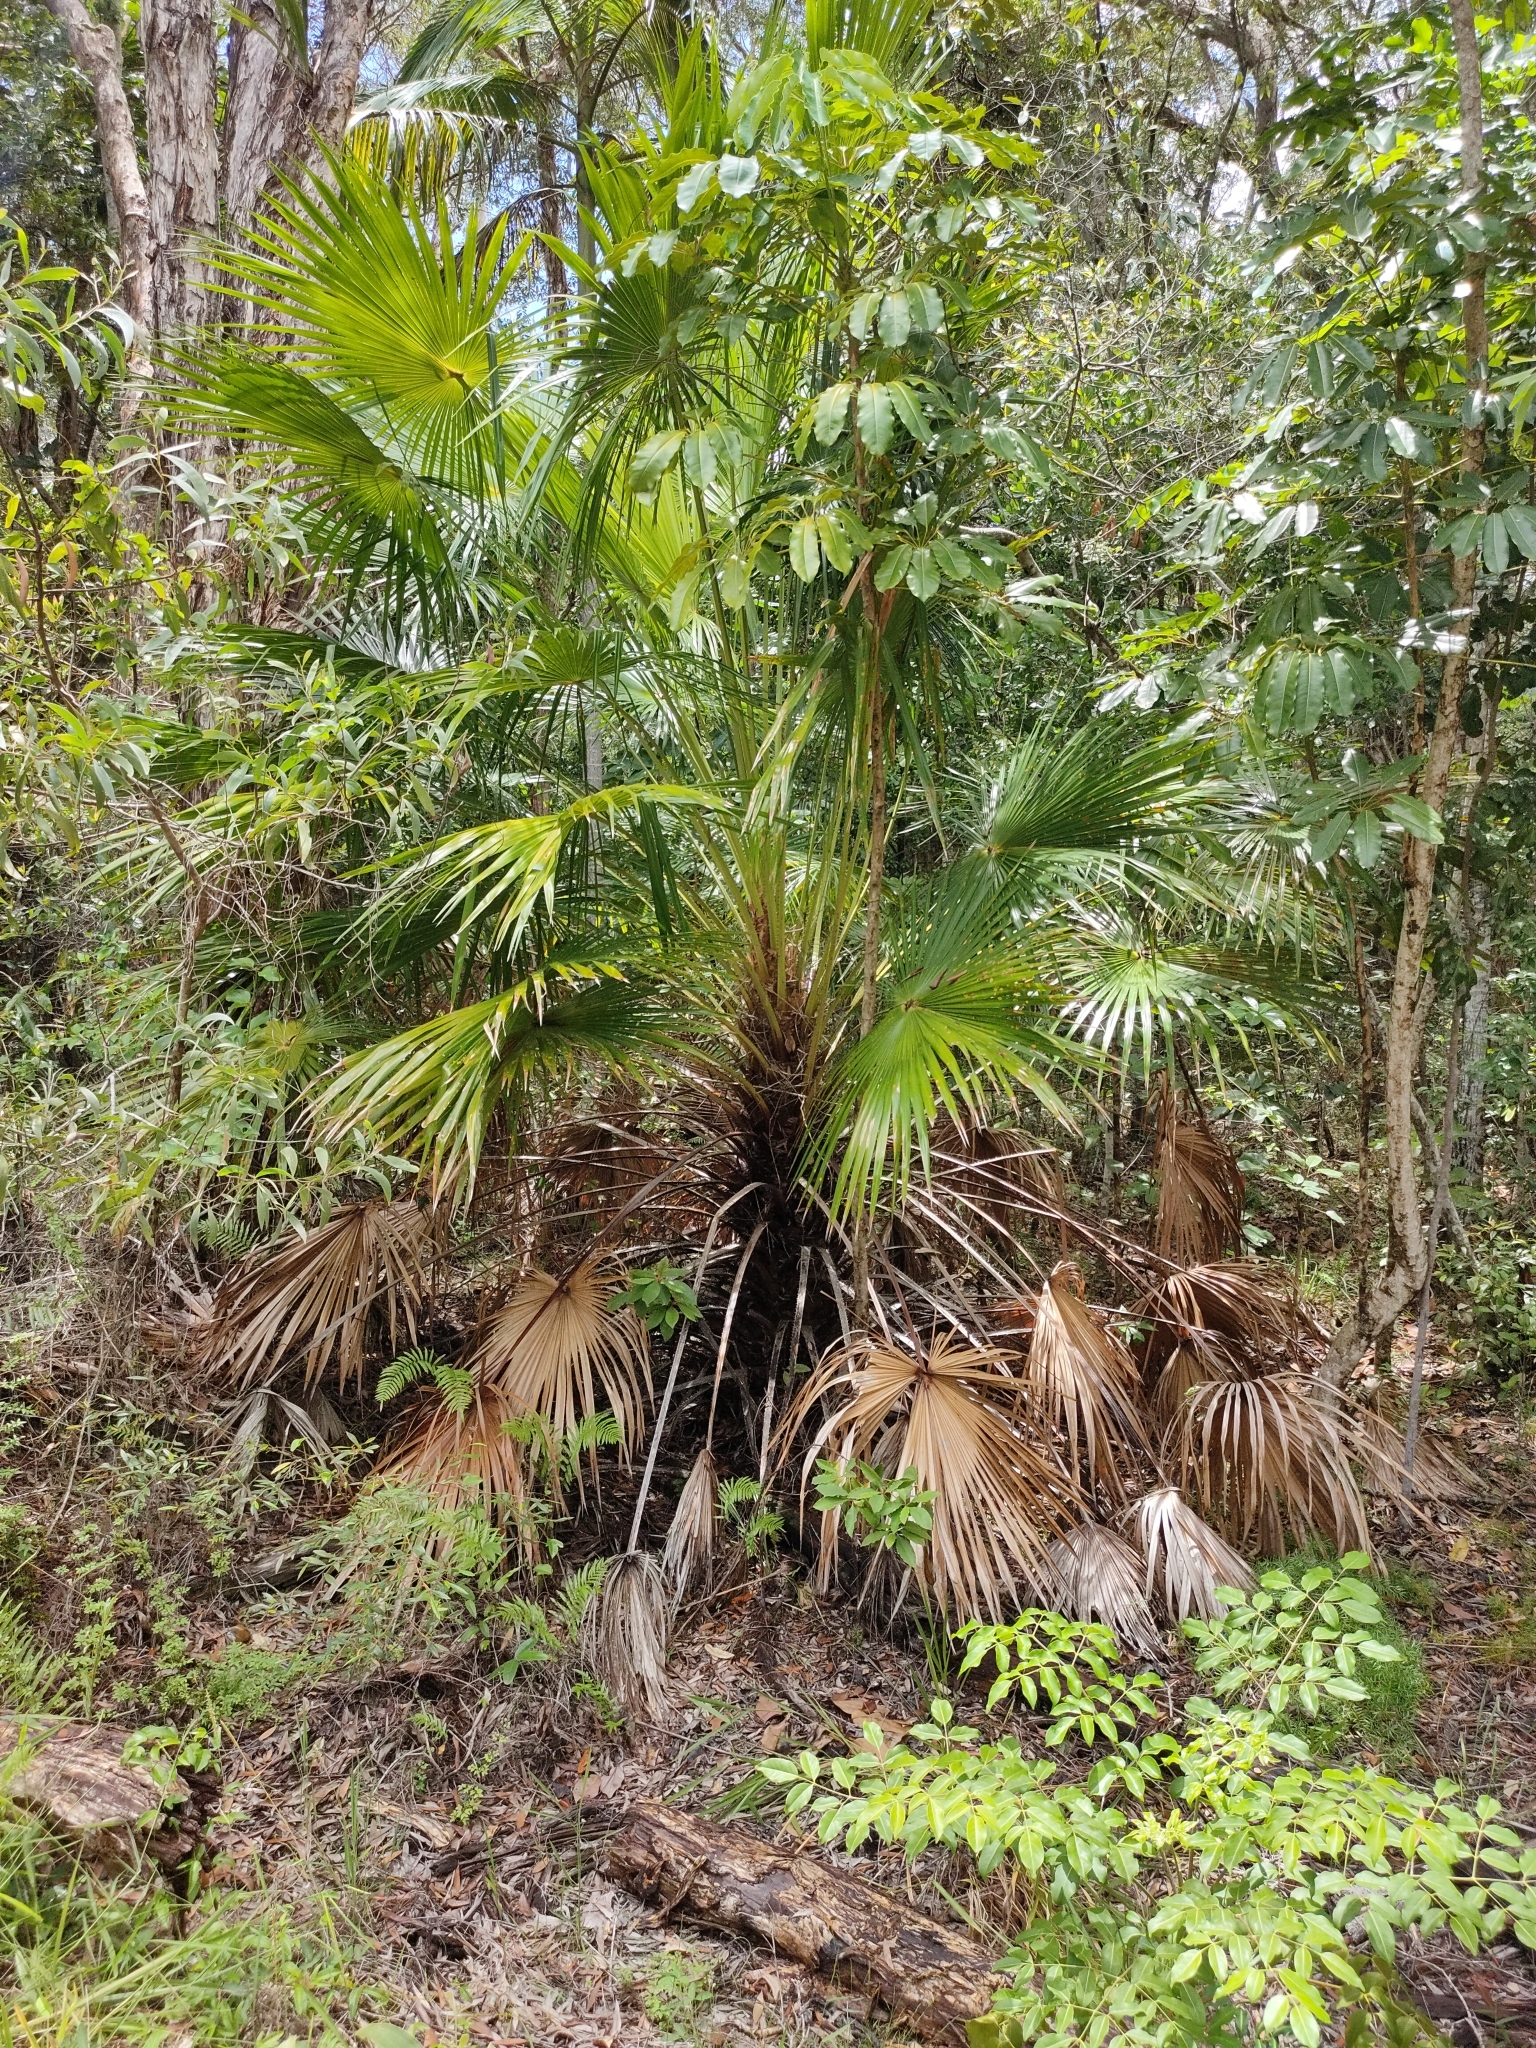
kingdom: Plantae
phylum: Tracheophyta
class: Liliopsida
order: Arecales
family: Arecaceae
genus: Livistona
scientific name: Livistona australis
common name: Cabbage fan palm
